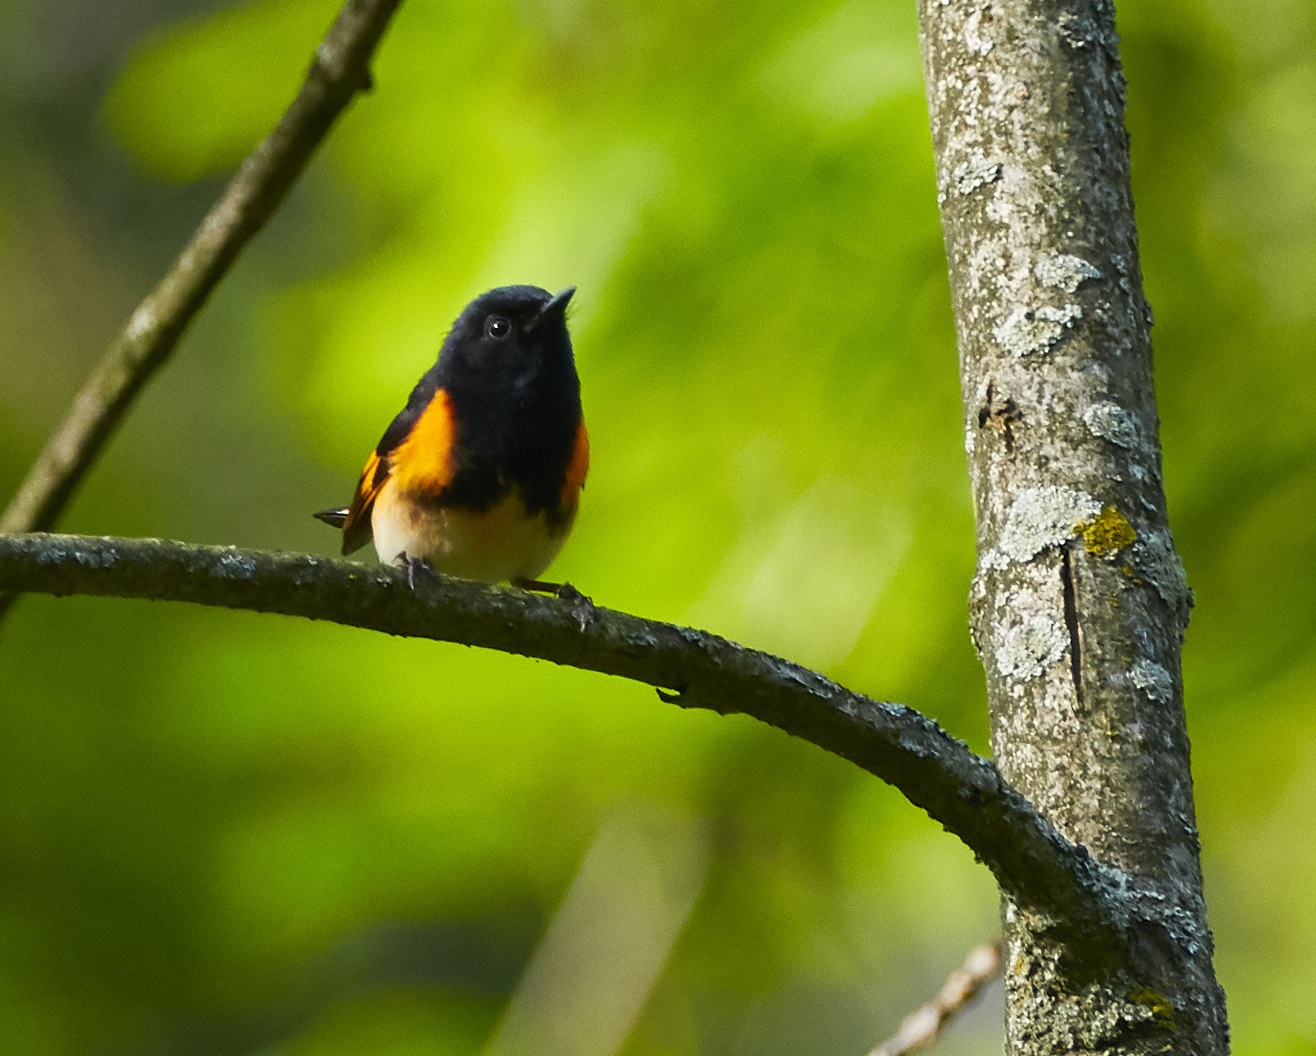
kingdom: Animalia
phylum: Chordata
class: Aves
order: Passeriformes
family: Parulidae
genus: Setophaga
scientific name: Setophaga ruticilla
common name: American redstart
